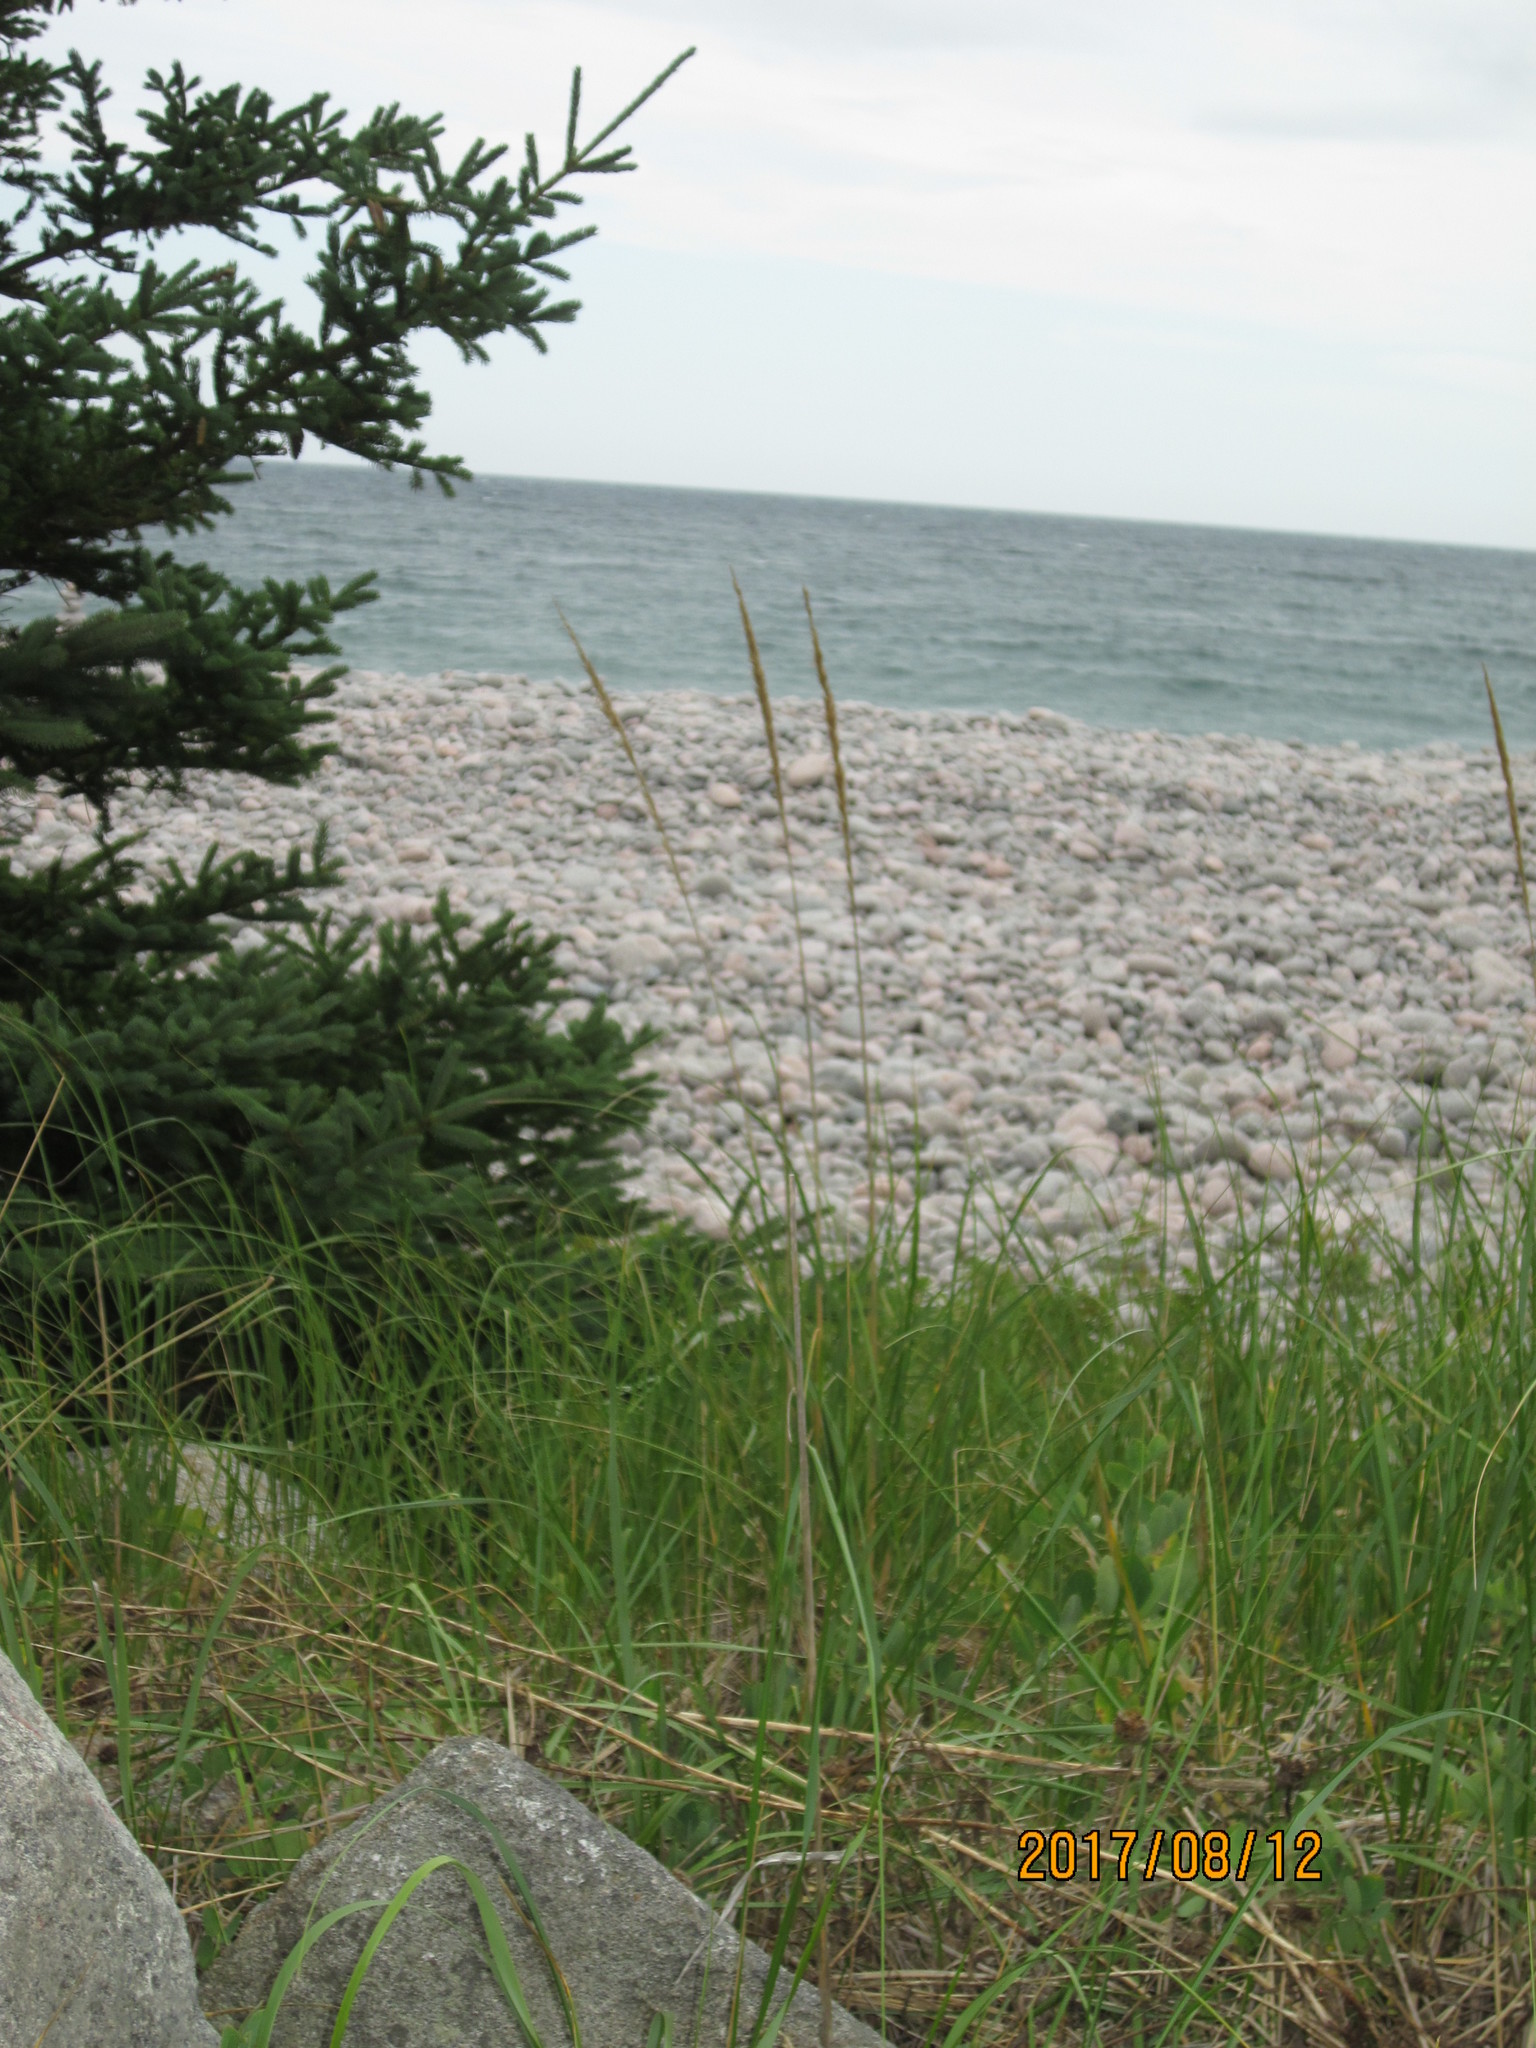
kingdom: Plantae
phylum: Tracheophyta
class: Liliopsida
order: Poales
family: Poaceae
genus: Calamagrostis
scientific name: Calamagrostis breviligulata
